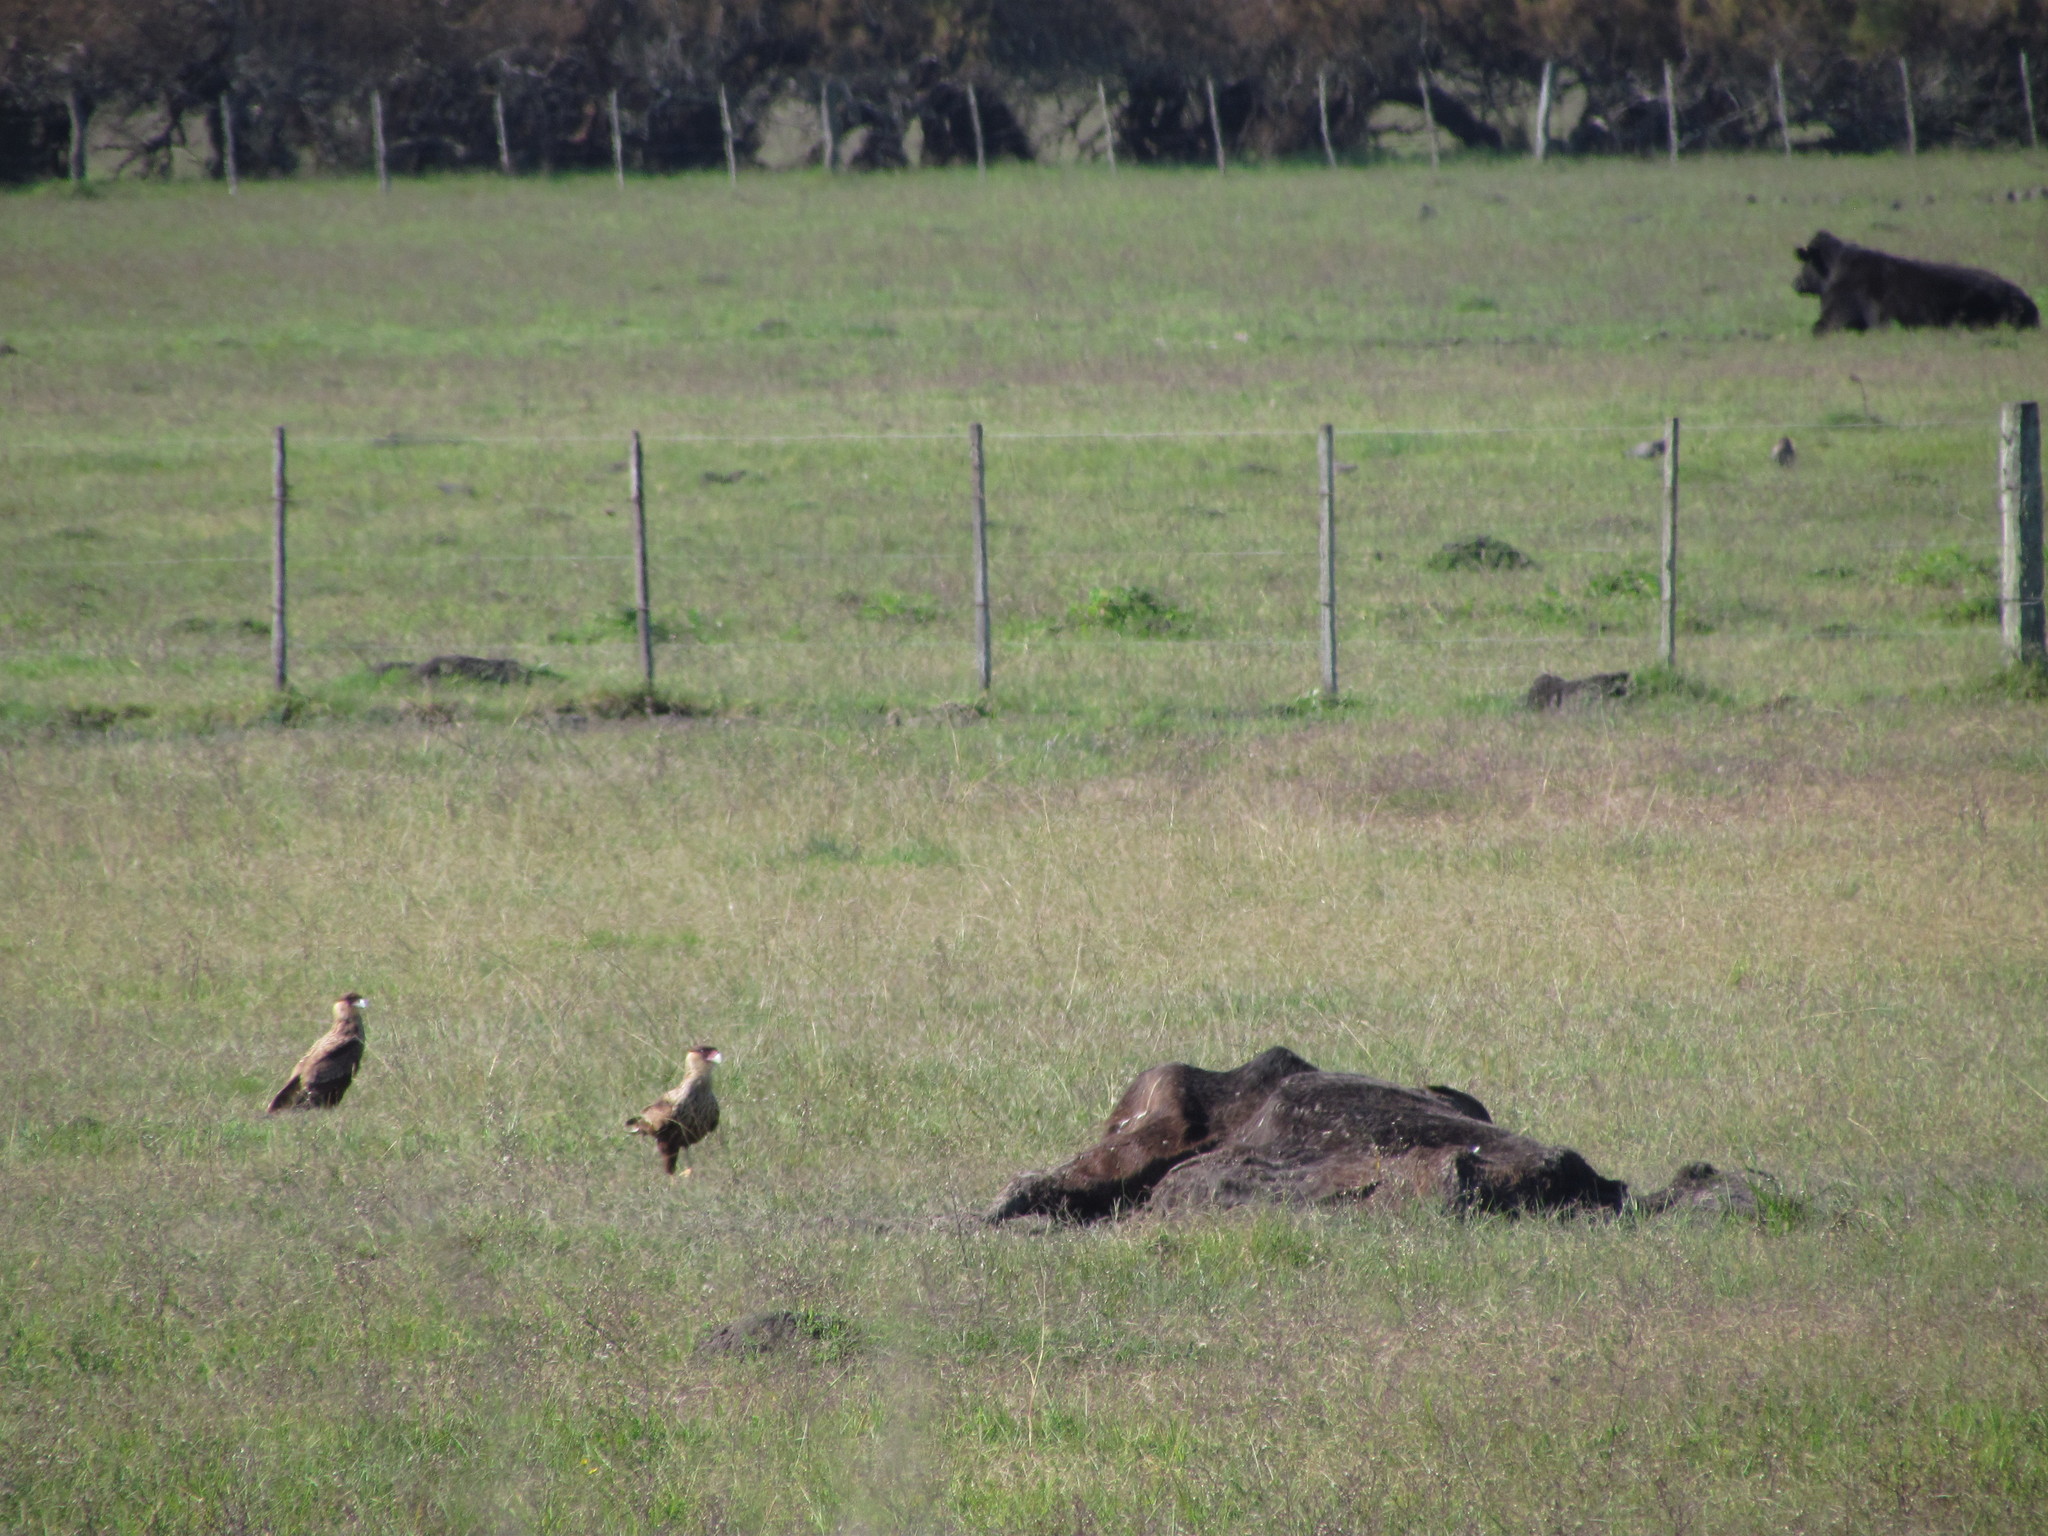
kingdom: Animalia
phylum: Chordata
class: Aves
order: Falconiformes
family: Falconidae
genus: Caracara
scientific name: Caracara plancus
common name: Southern caracara
